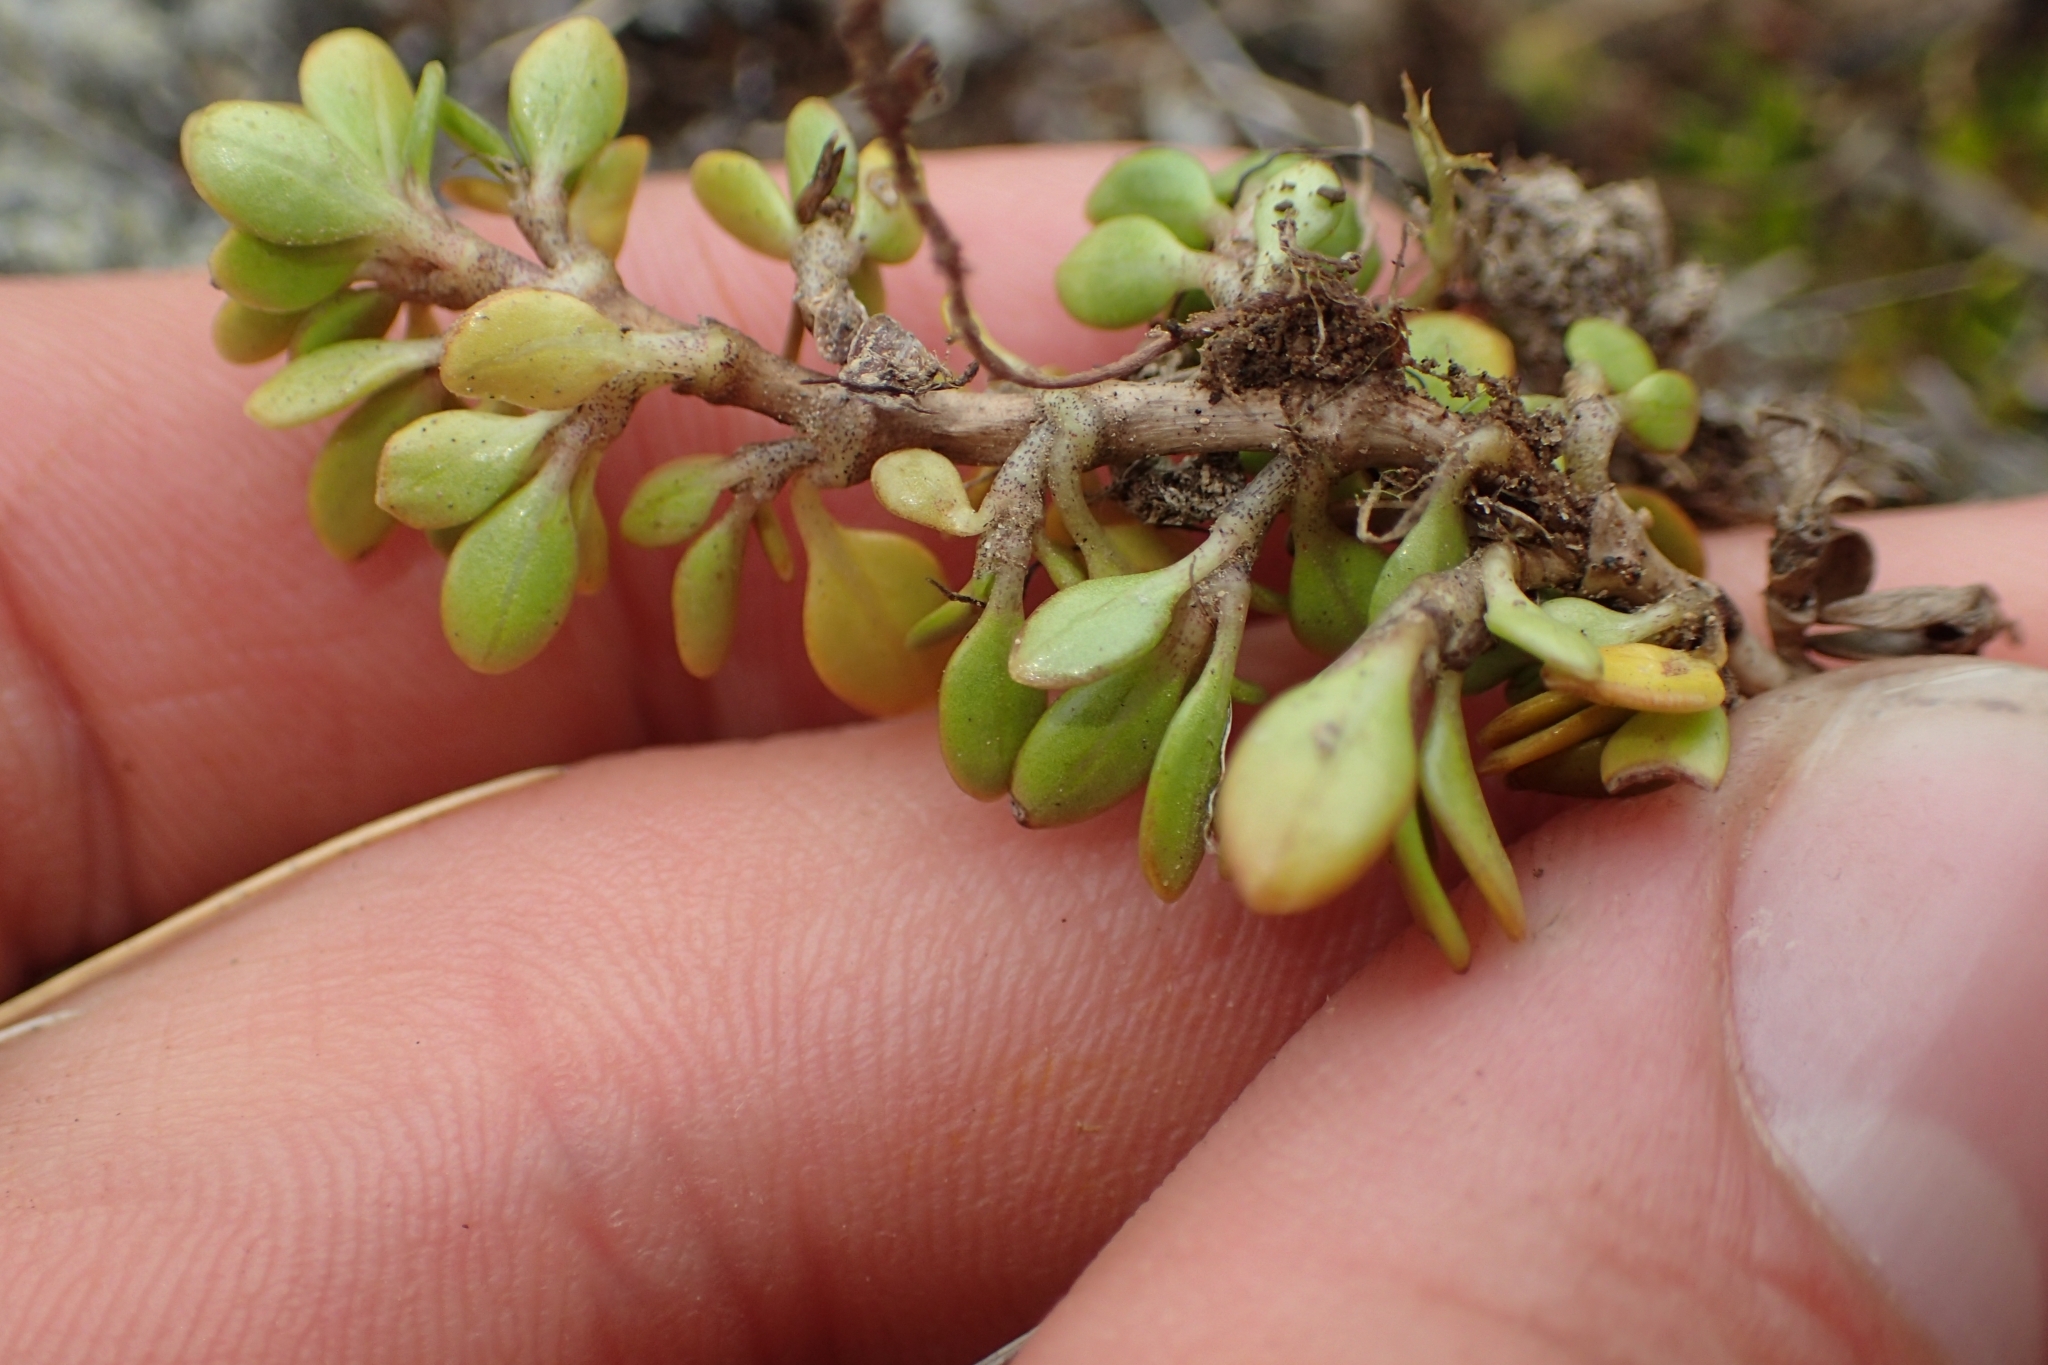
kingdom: Plantae
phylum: Tracheophyta
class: Magnoliopsida
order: Gentianales
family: Rubiaceae
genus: Coprosma
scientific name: Coprosma perpusilla
